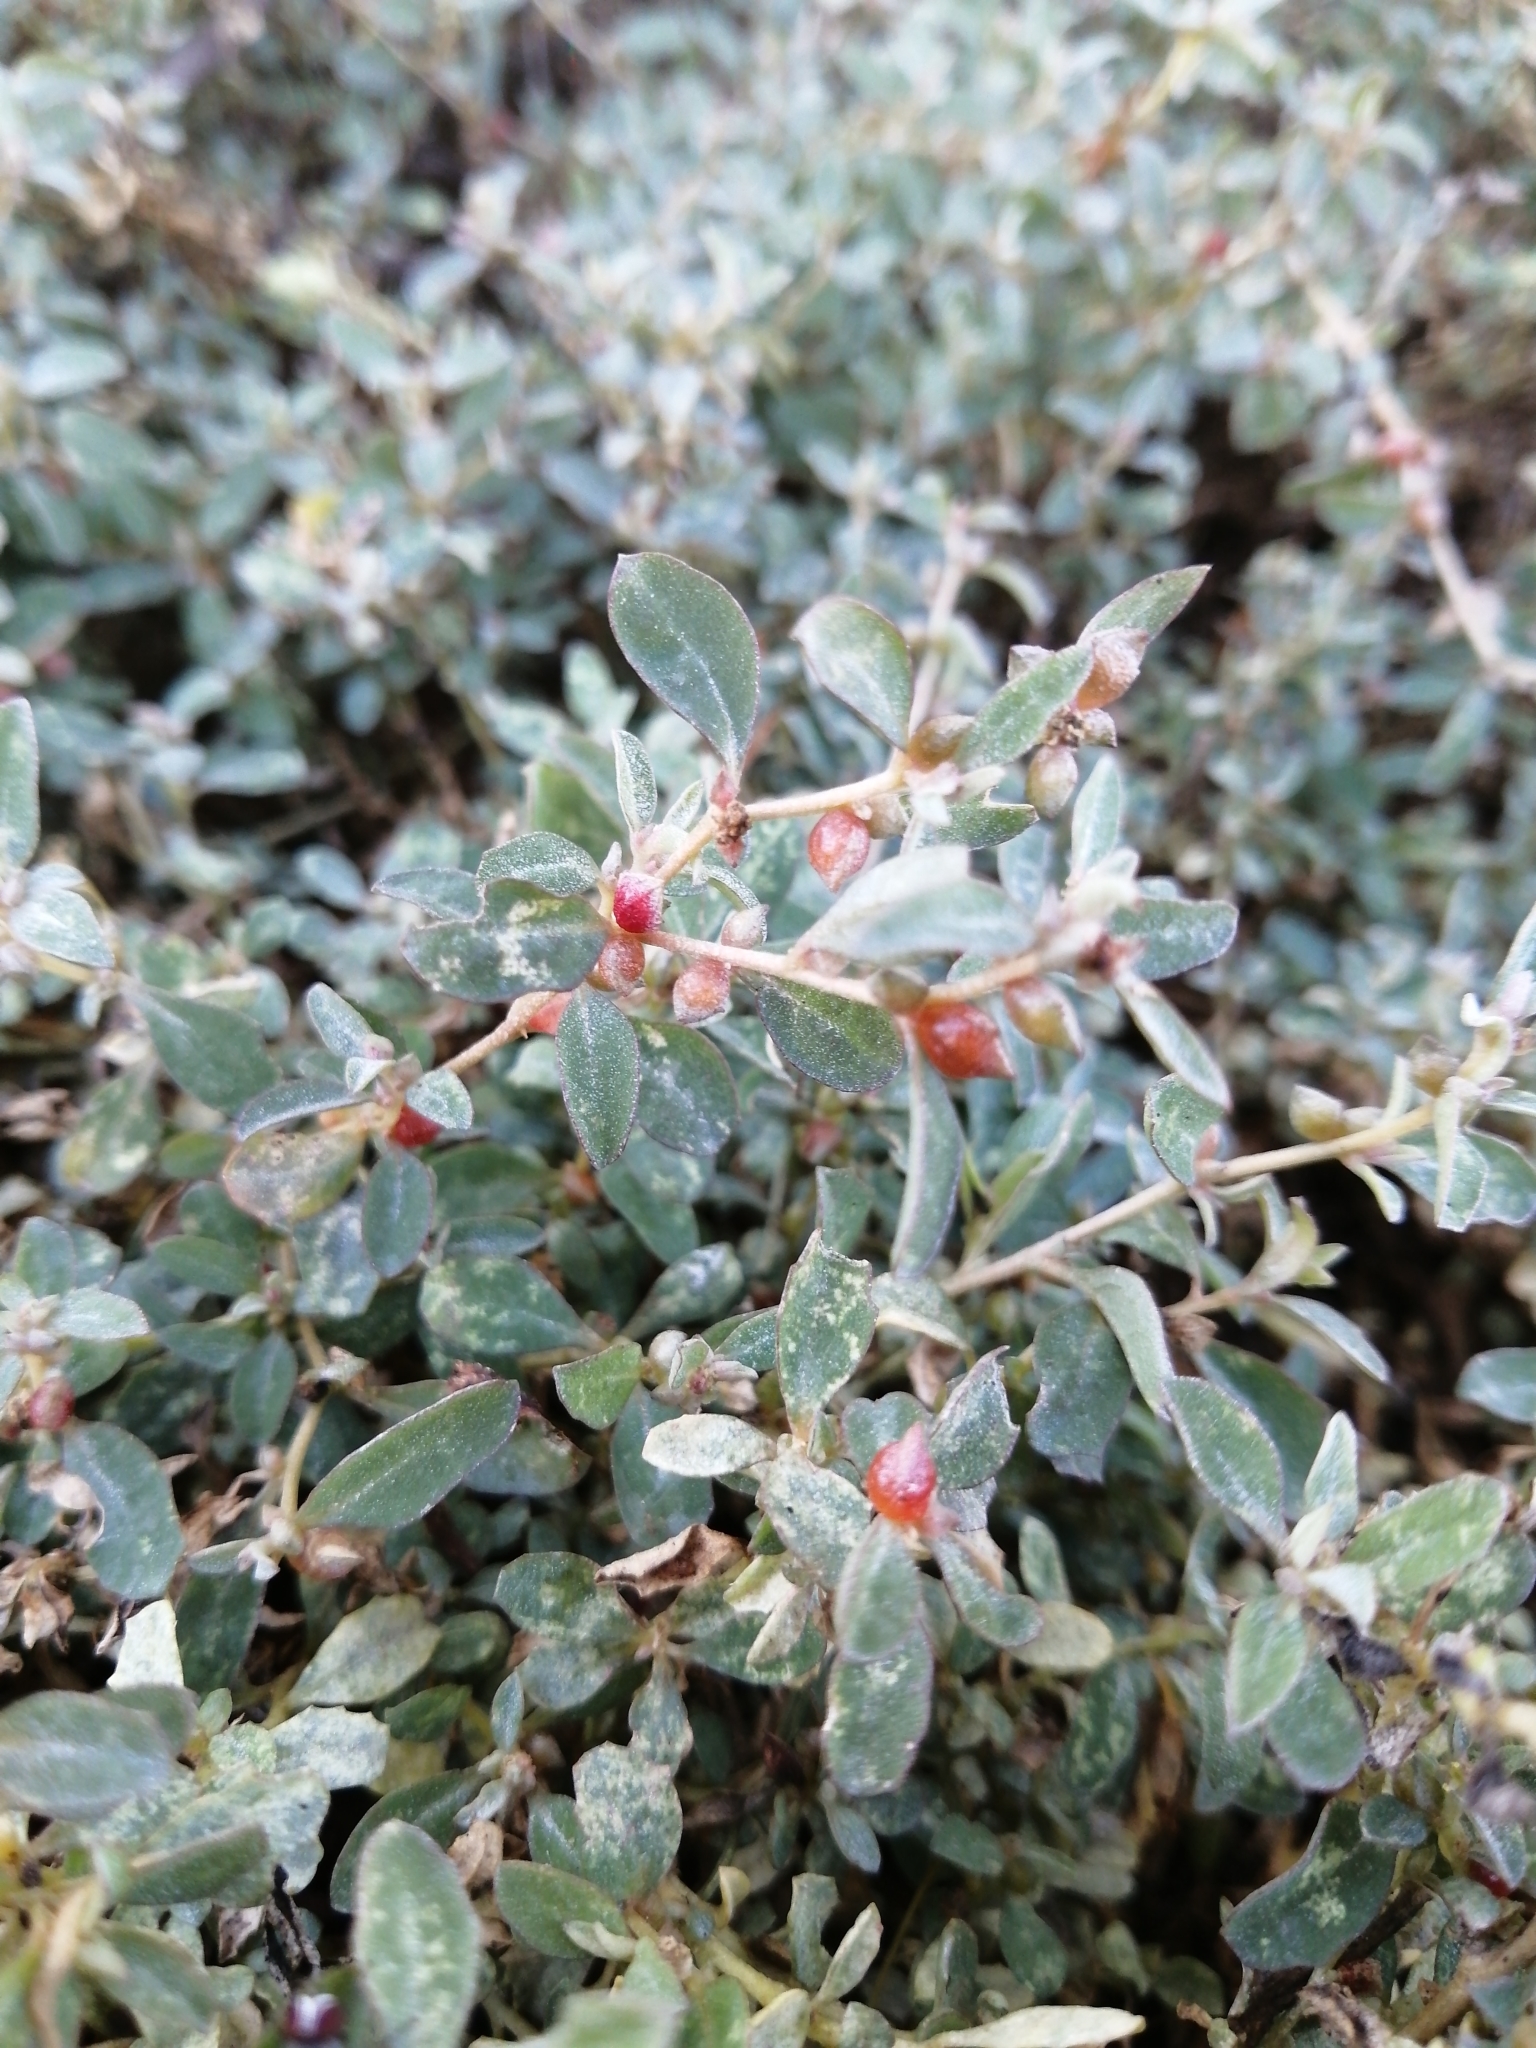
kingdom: Plantae
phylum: Tracheophyta
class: Magnoliopsida
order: Caryophyllales
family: Amaranthaceae
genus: Atriplex
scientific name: Atriplex semibaccata
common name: Australian saltbush
